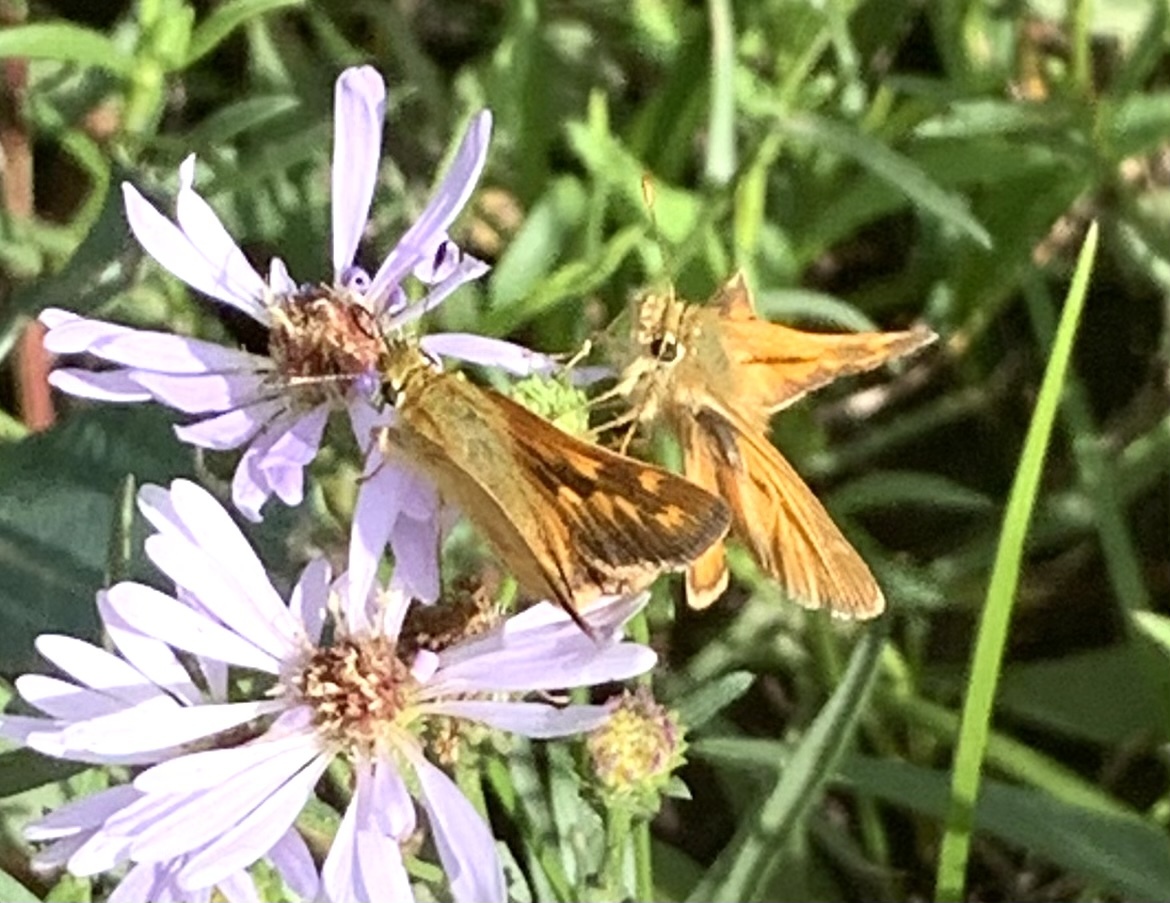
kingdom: Animalia
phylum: Arthropoda
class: Insecta
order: Lepidoptera
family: Hesperiidae
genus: Ochlodes
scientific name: Ochlodes sylvanoides
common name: Woodland skipper
